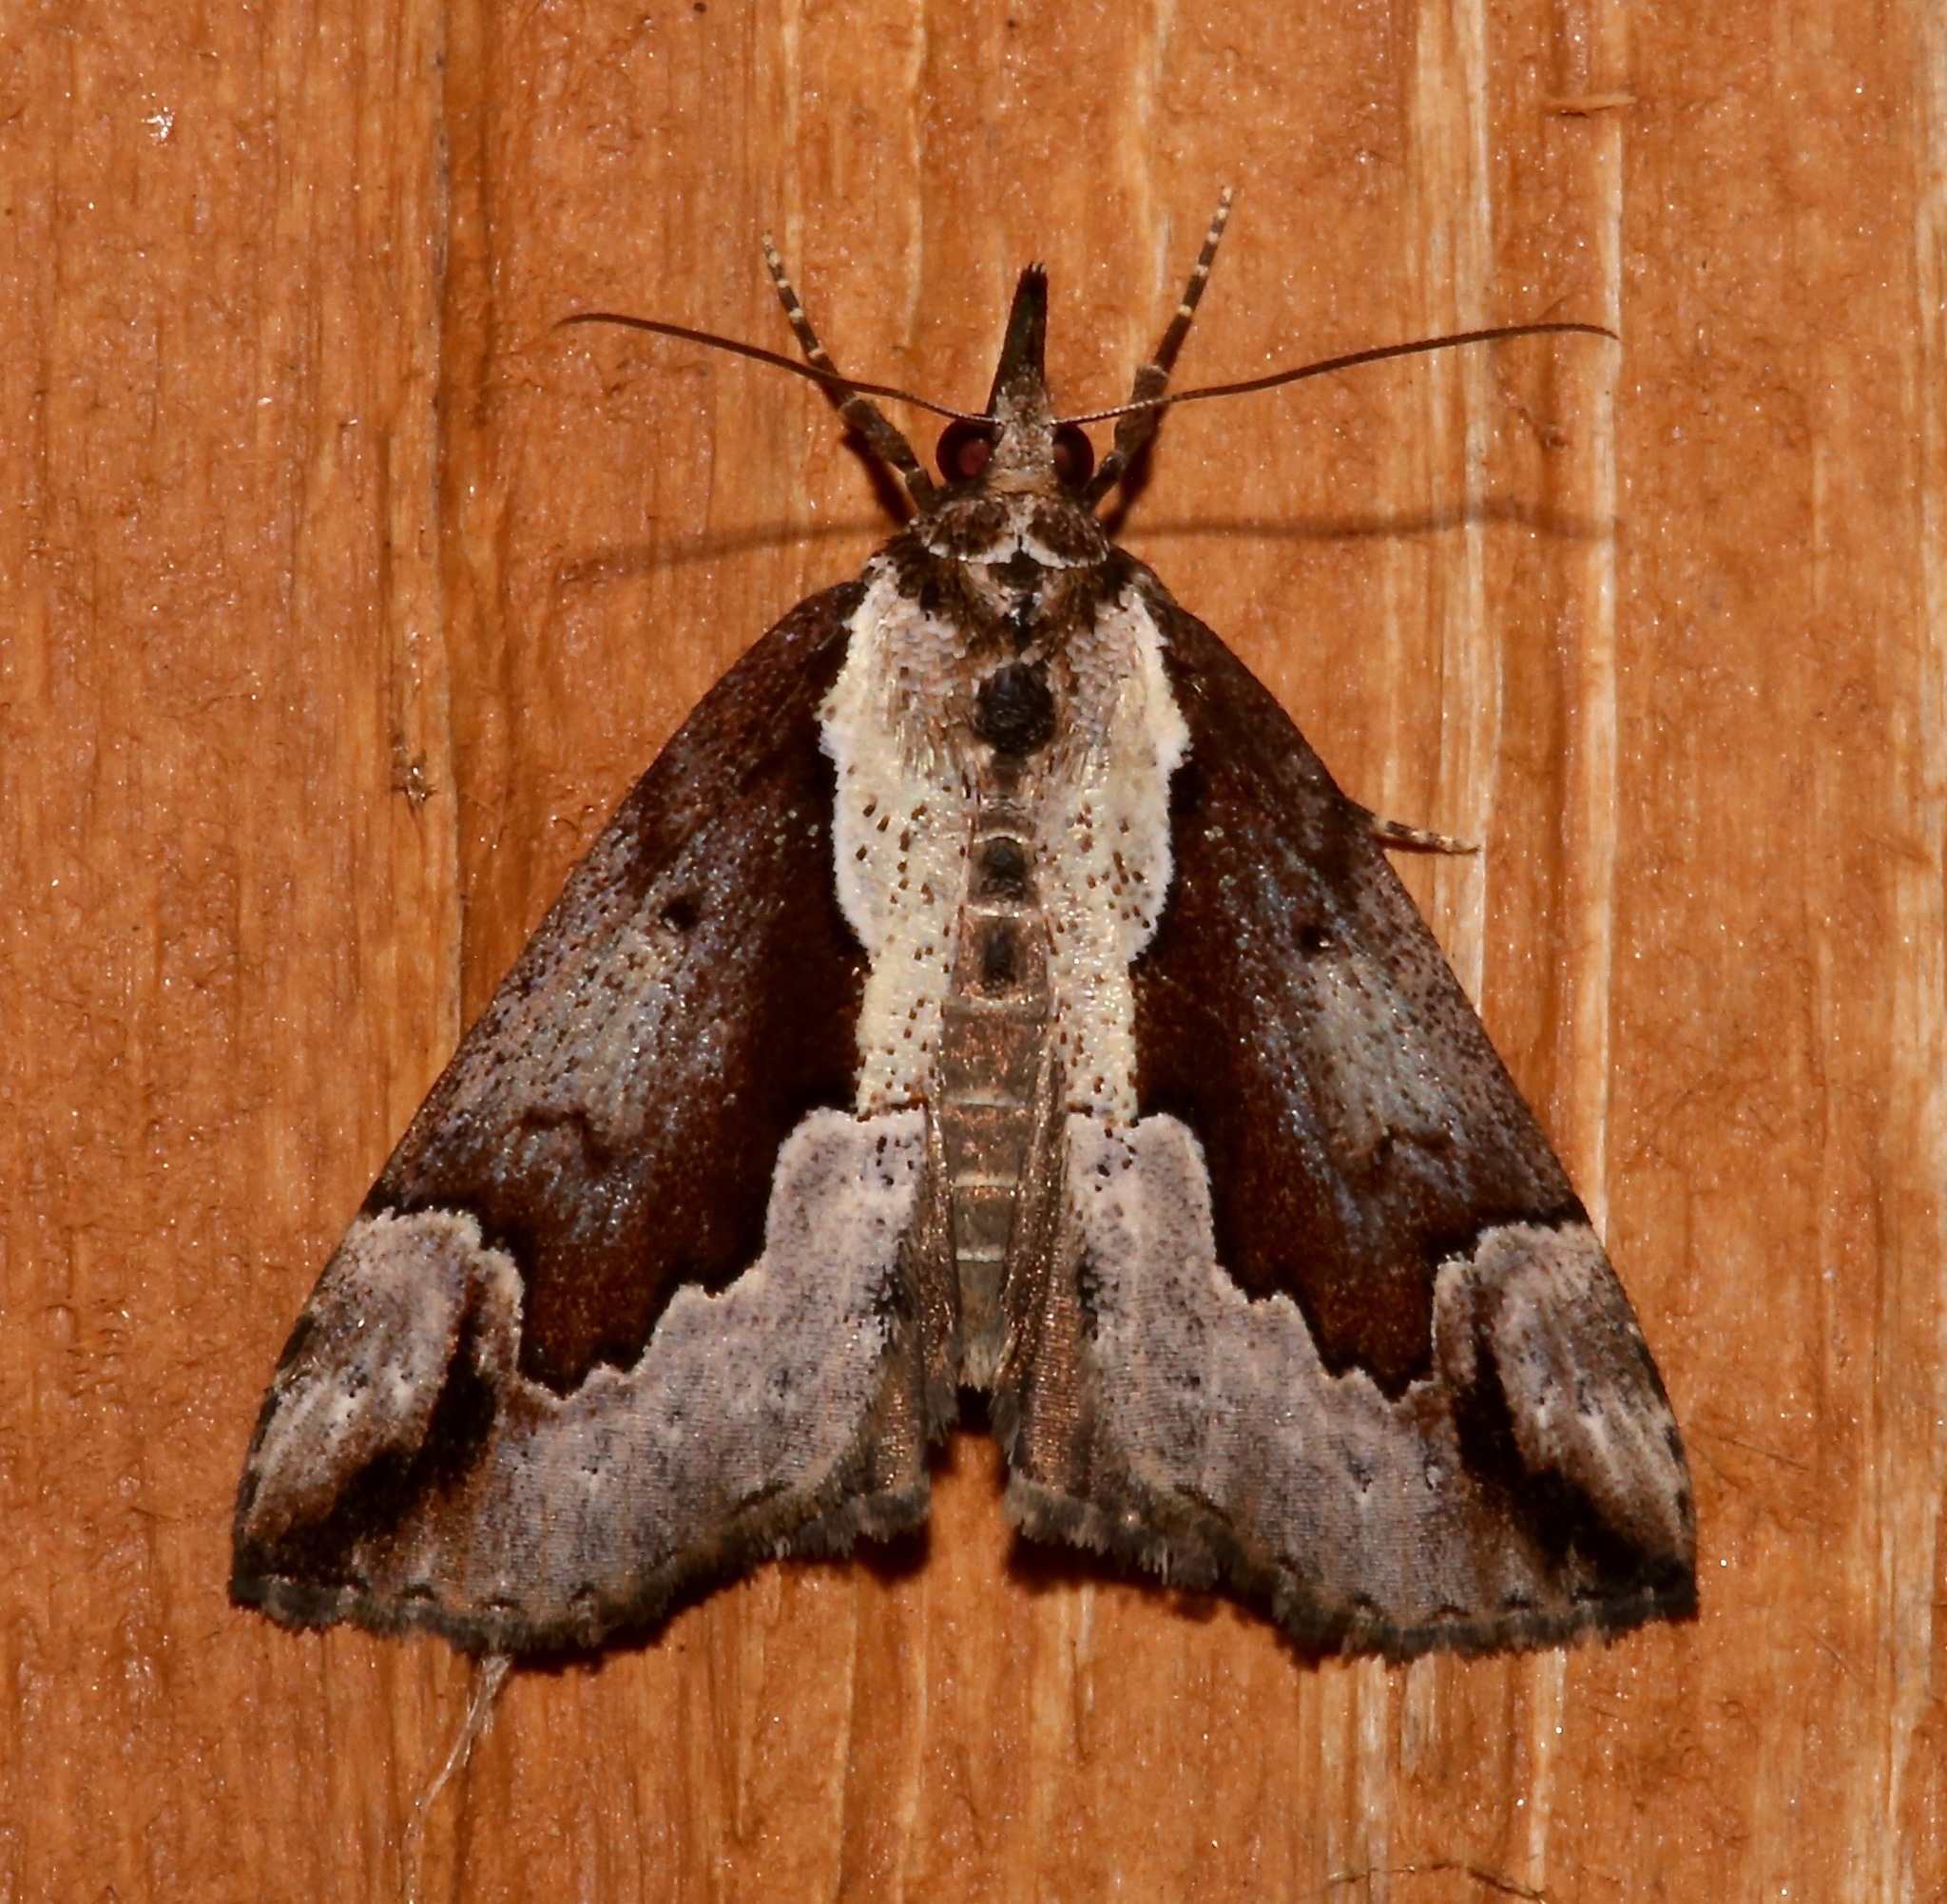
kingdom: Animalia
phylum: Arthropoda
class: Insecta
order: Lepidoptera
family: Erebidae
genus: Hypena
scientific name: Hypena baltimoralis
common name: Baltimore snout
